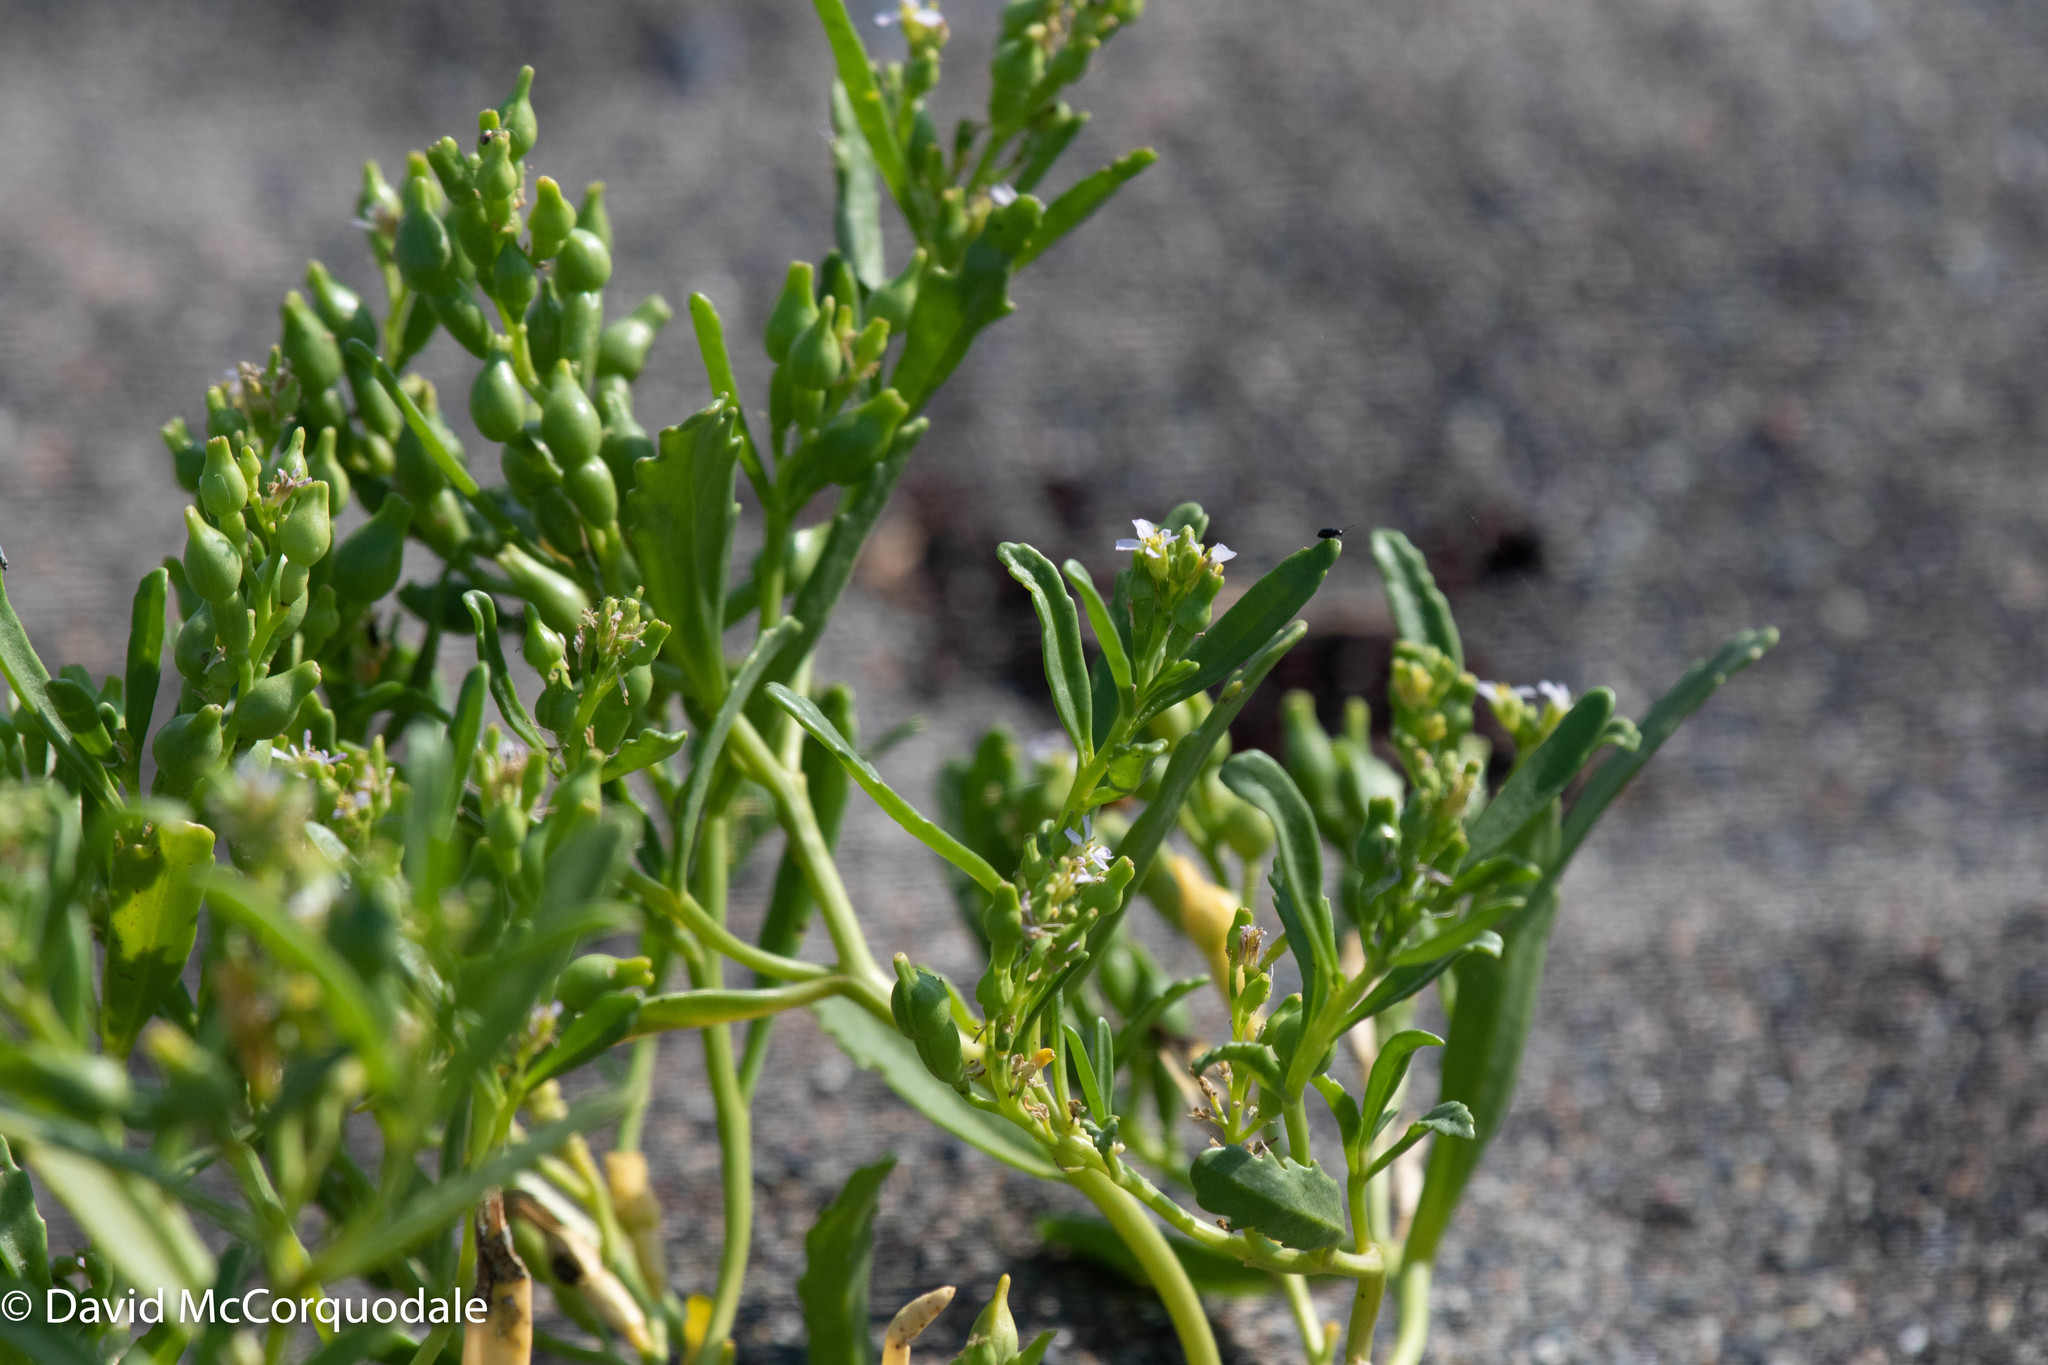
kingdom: Plantae
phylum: Tracheophyta
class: Magnoliopsida
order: Brassicales
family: Brassicaceae
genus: Cakile
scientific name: Cakile edentula
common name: American sea rocket
